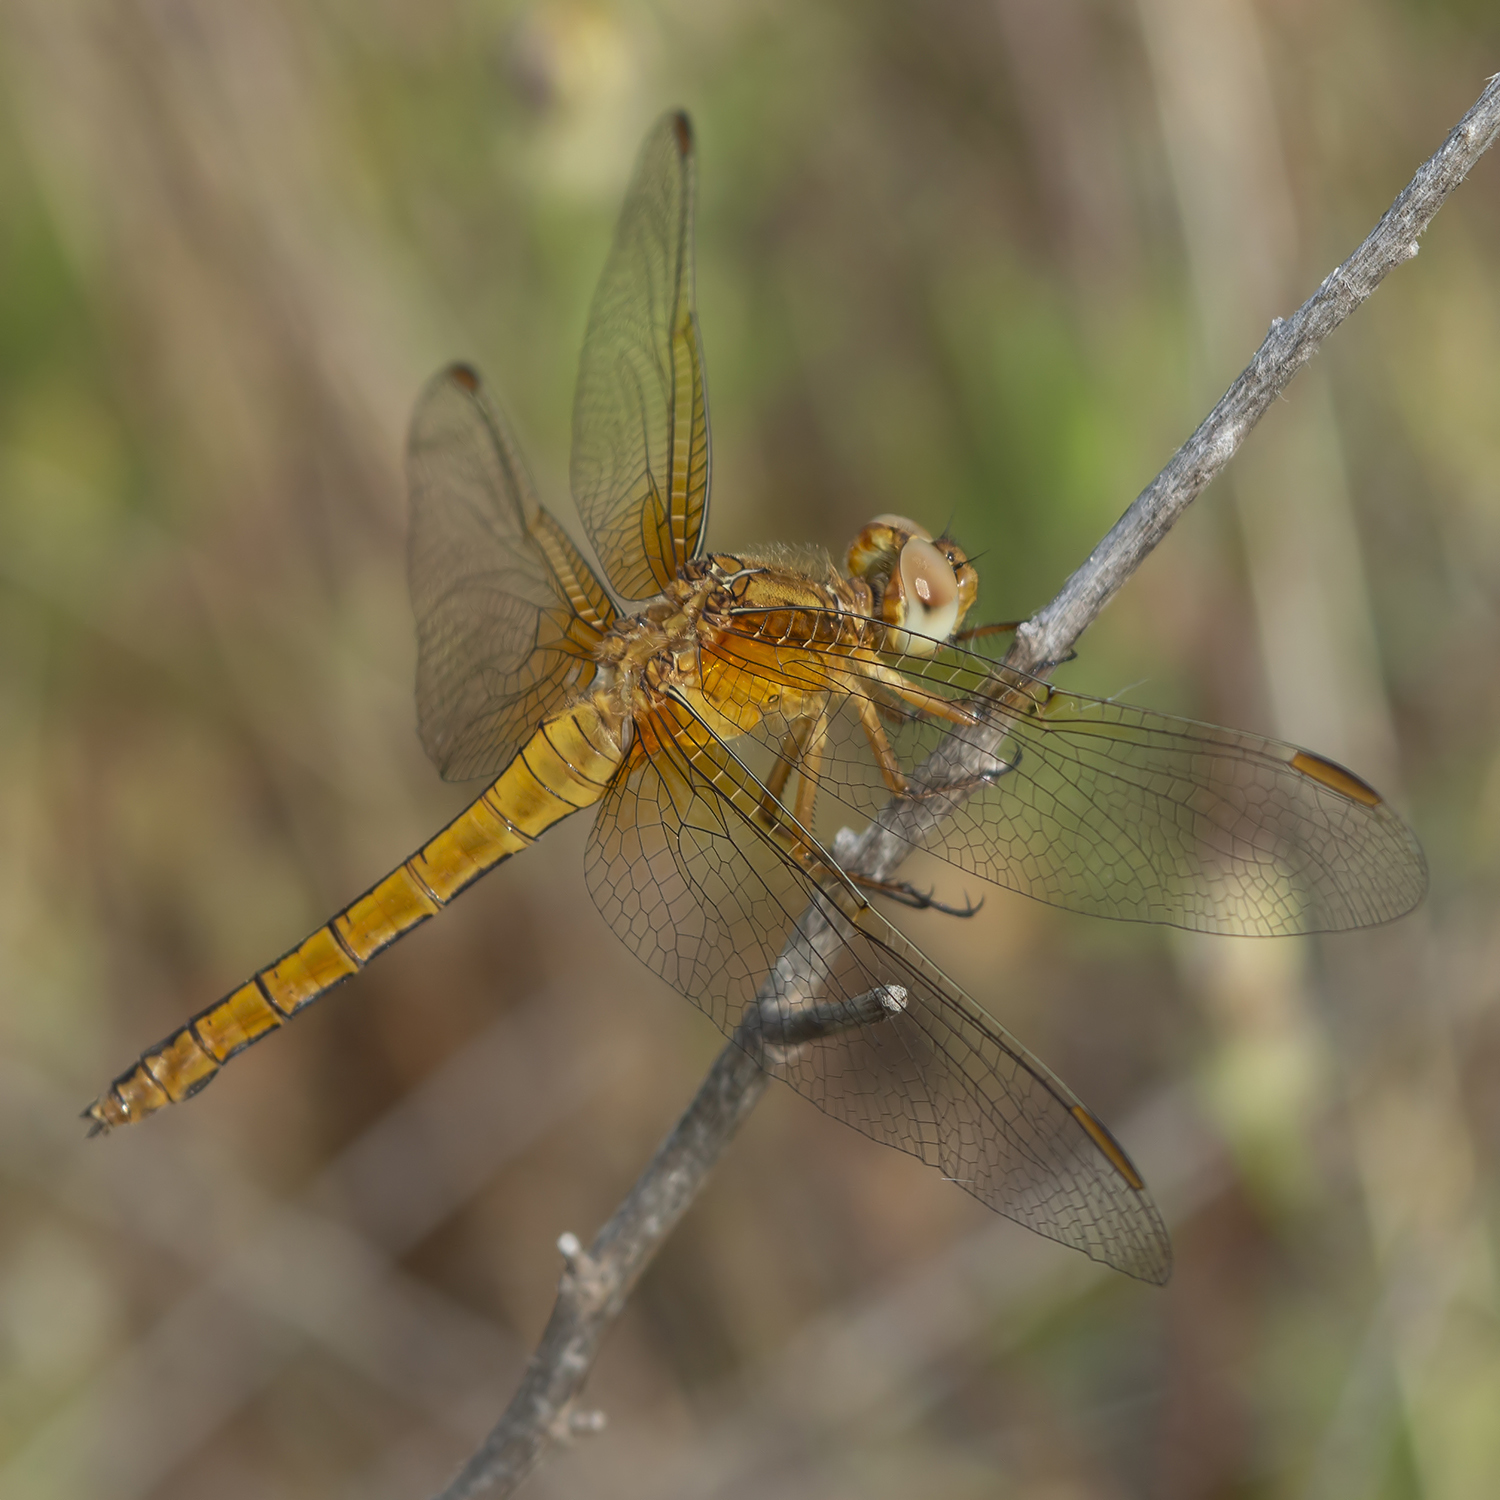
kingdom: Animalia
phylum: Arthropoda
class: Insecta
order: Odonata
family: Libellulidae
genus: Orthetrum
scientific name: Orthetrum coerulescens
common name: Keeled skimmer
